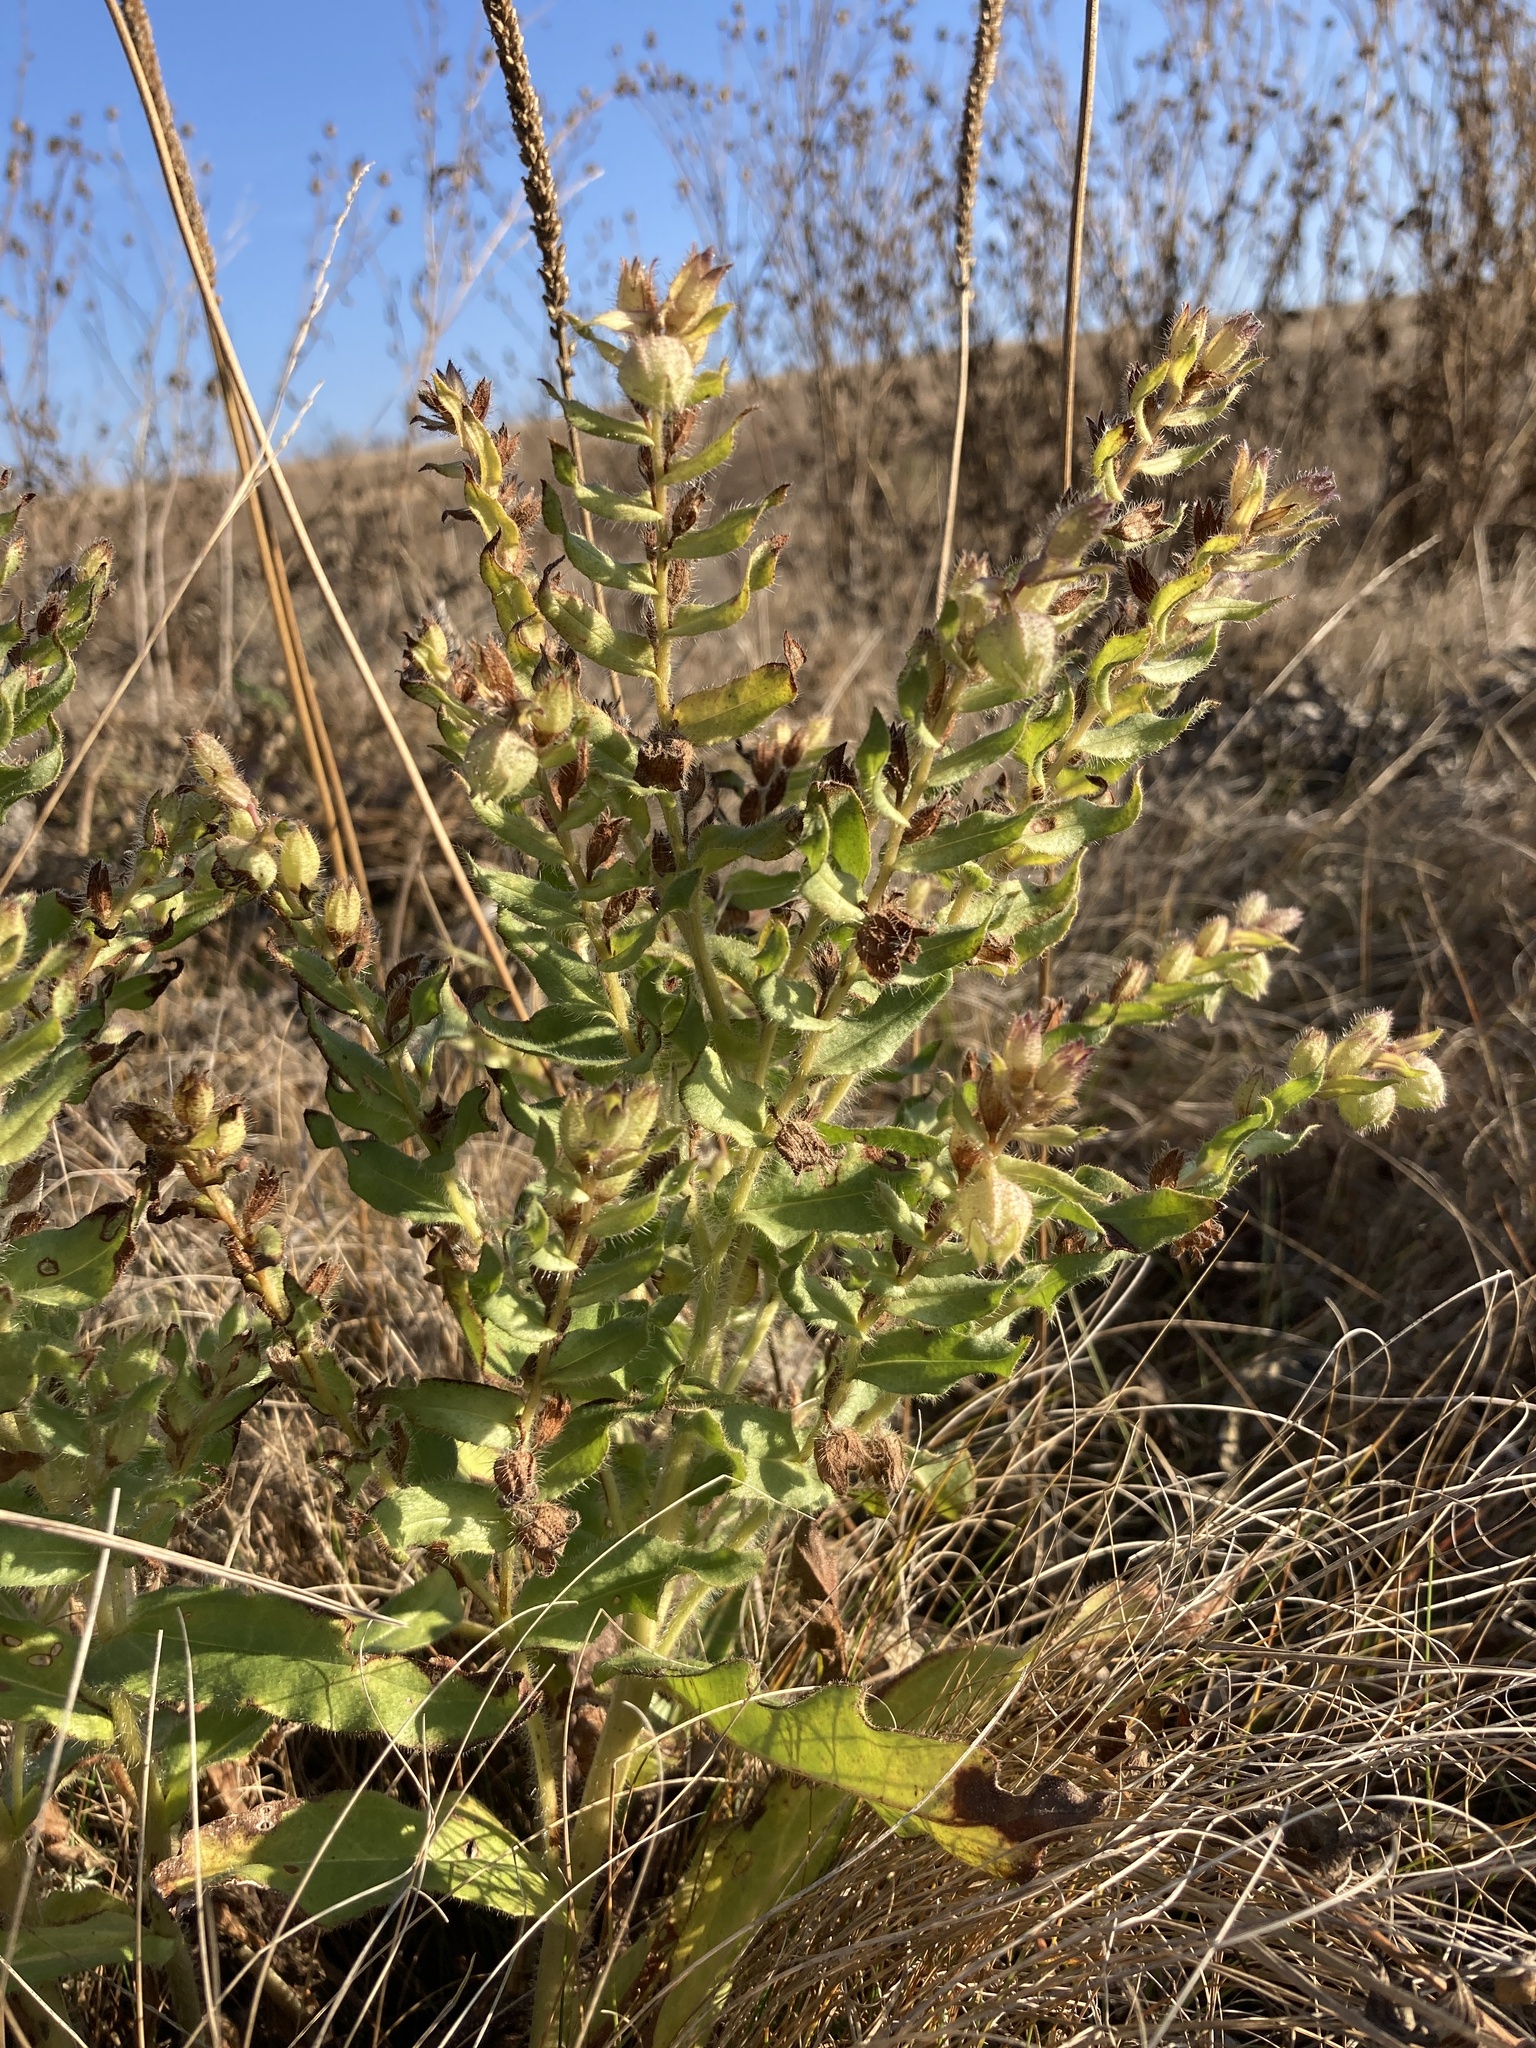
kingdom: Plantae
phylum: Tracheophyta
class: Magnoliopsida
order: Boraginales
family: Boraginaceae
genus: Nonea
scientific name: Nonea pulla
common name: Brown nonea
